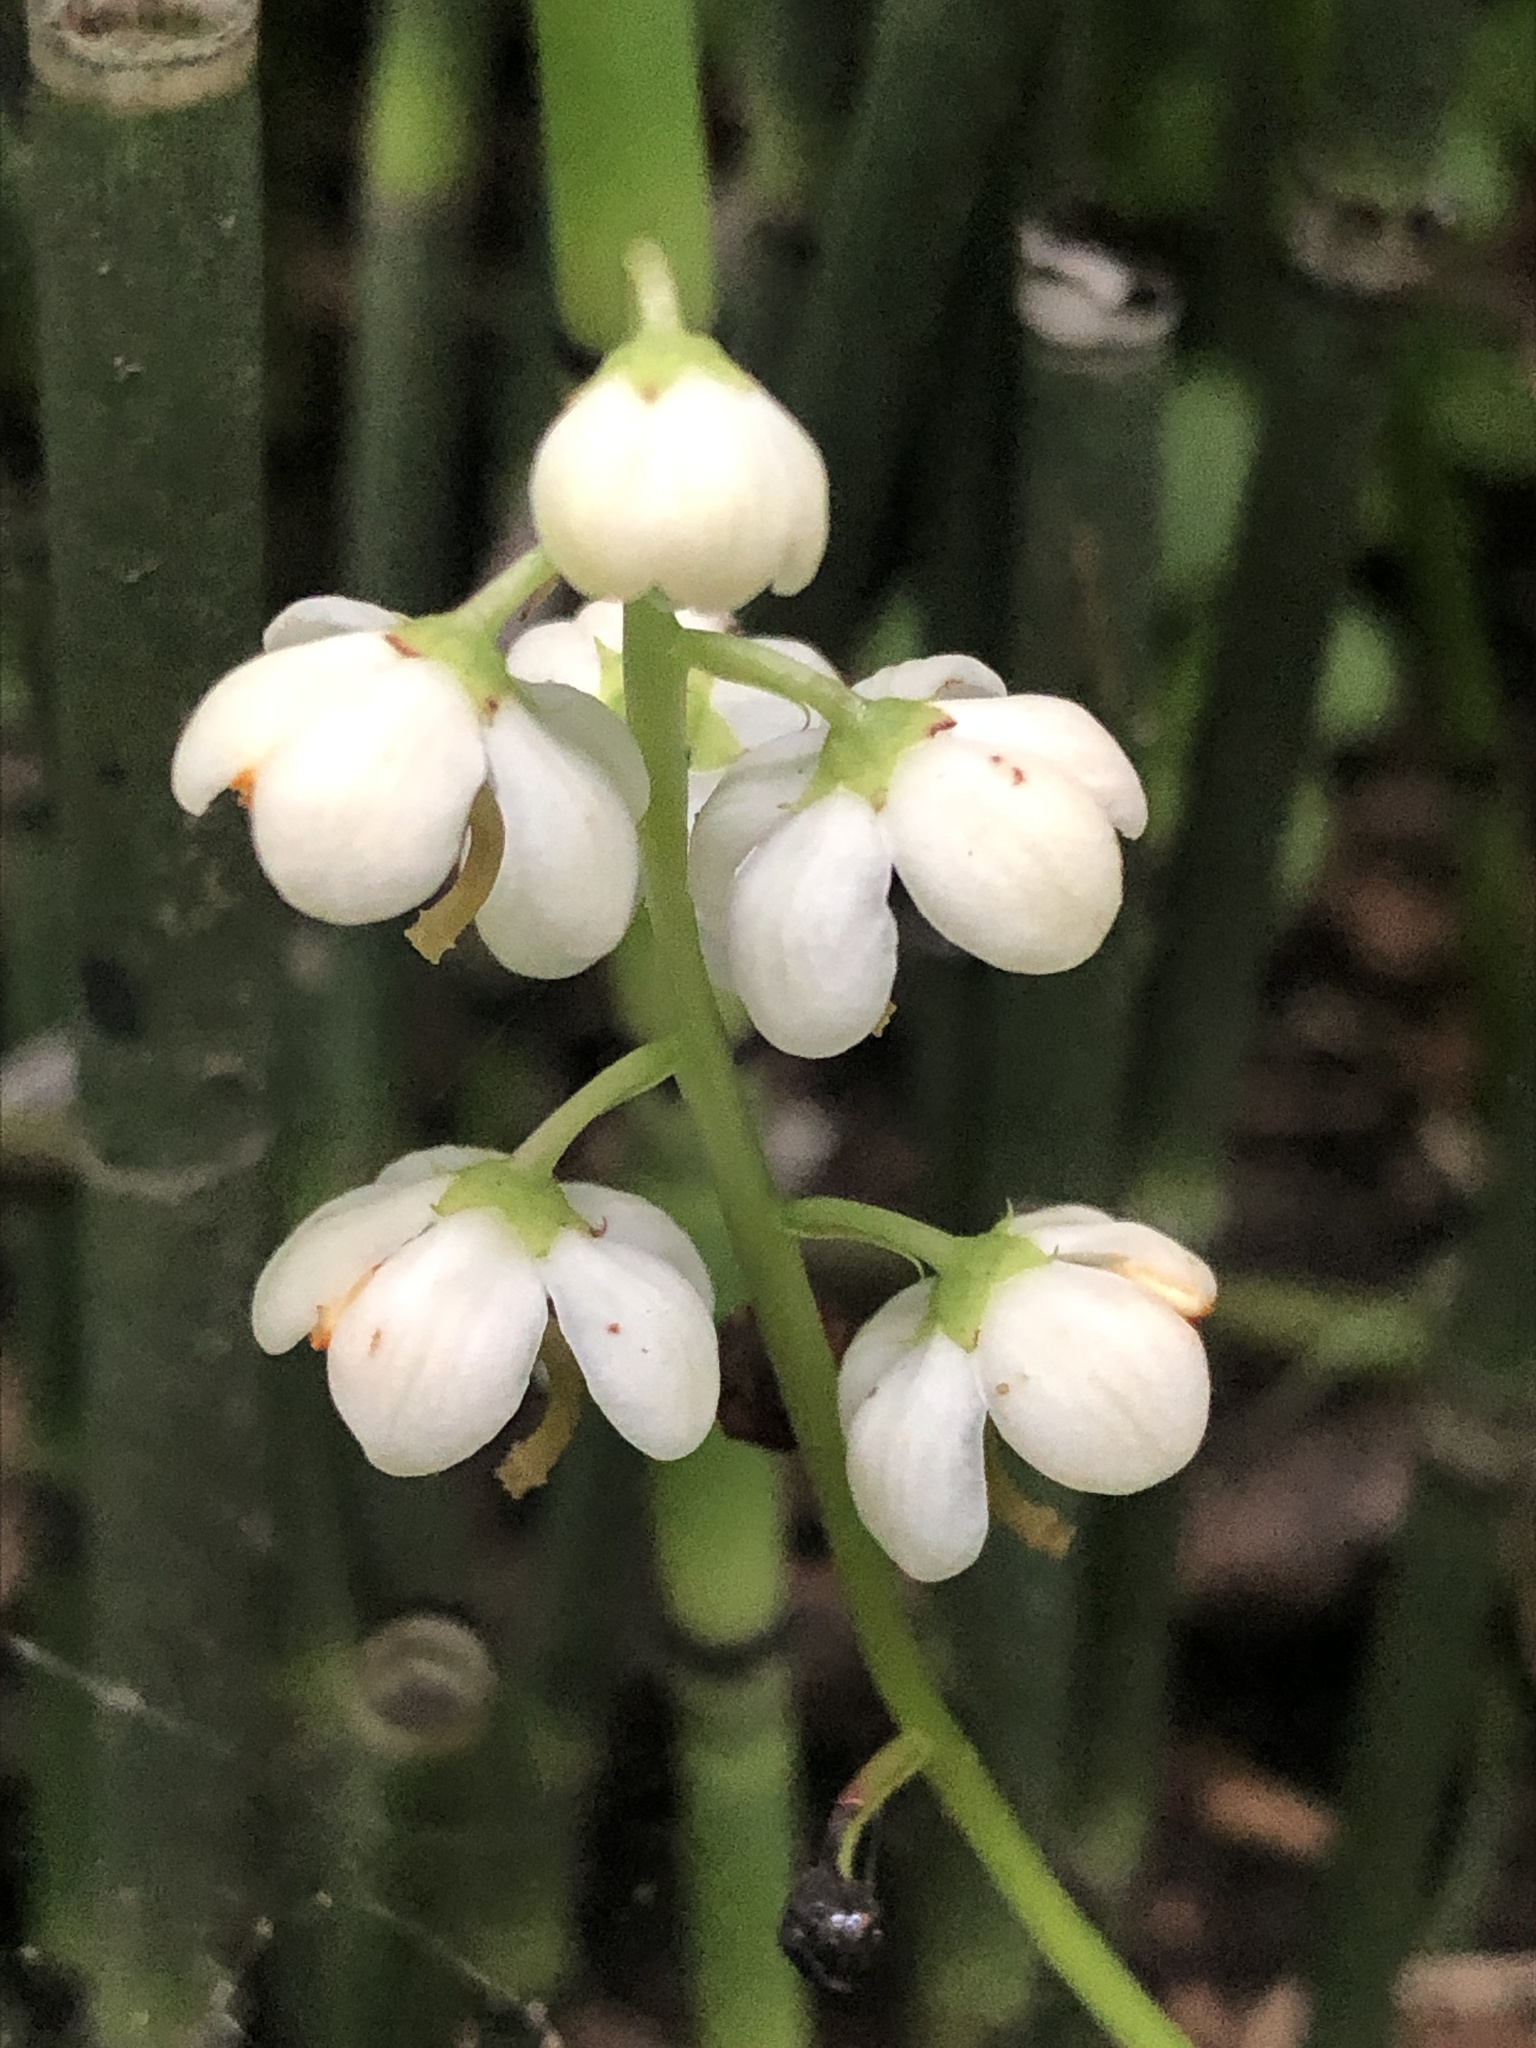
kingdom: Plantae
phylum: Tracheophyta
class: Magnoliopsida
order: Ericales
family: Ericaceae
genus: Pyrola
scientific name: Pyrola elliptica
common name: Shinleaf
